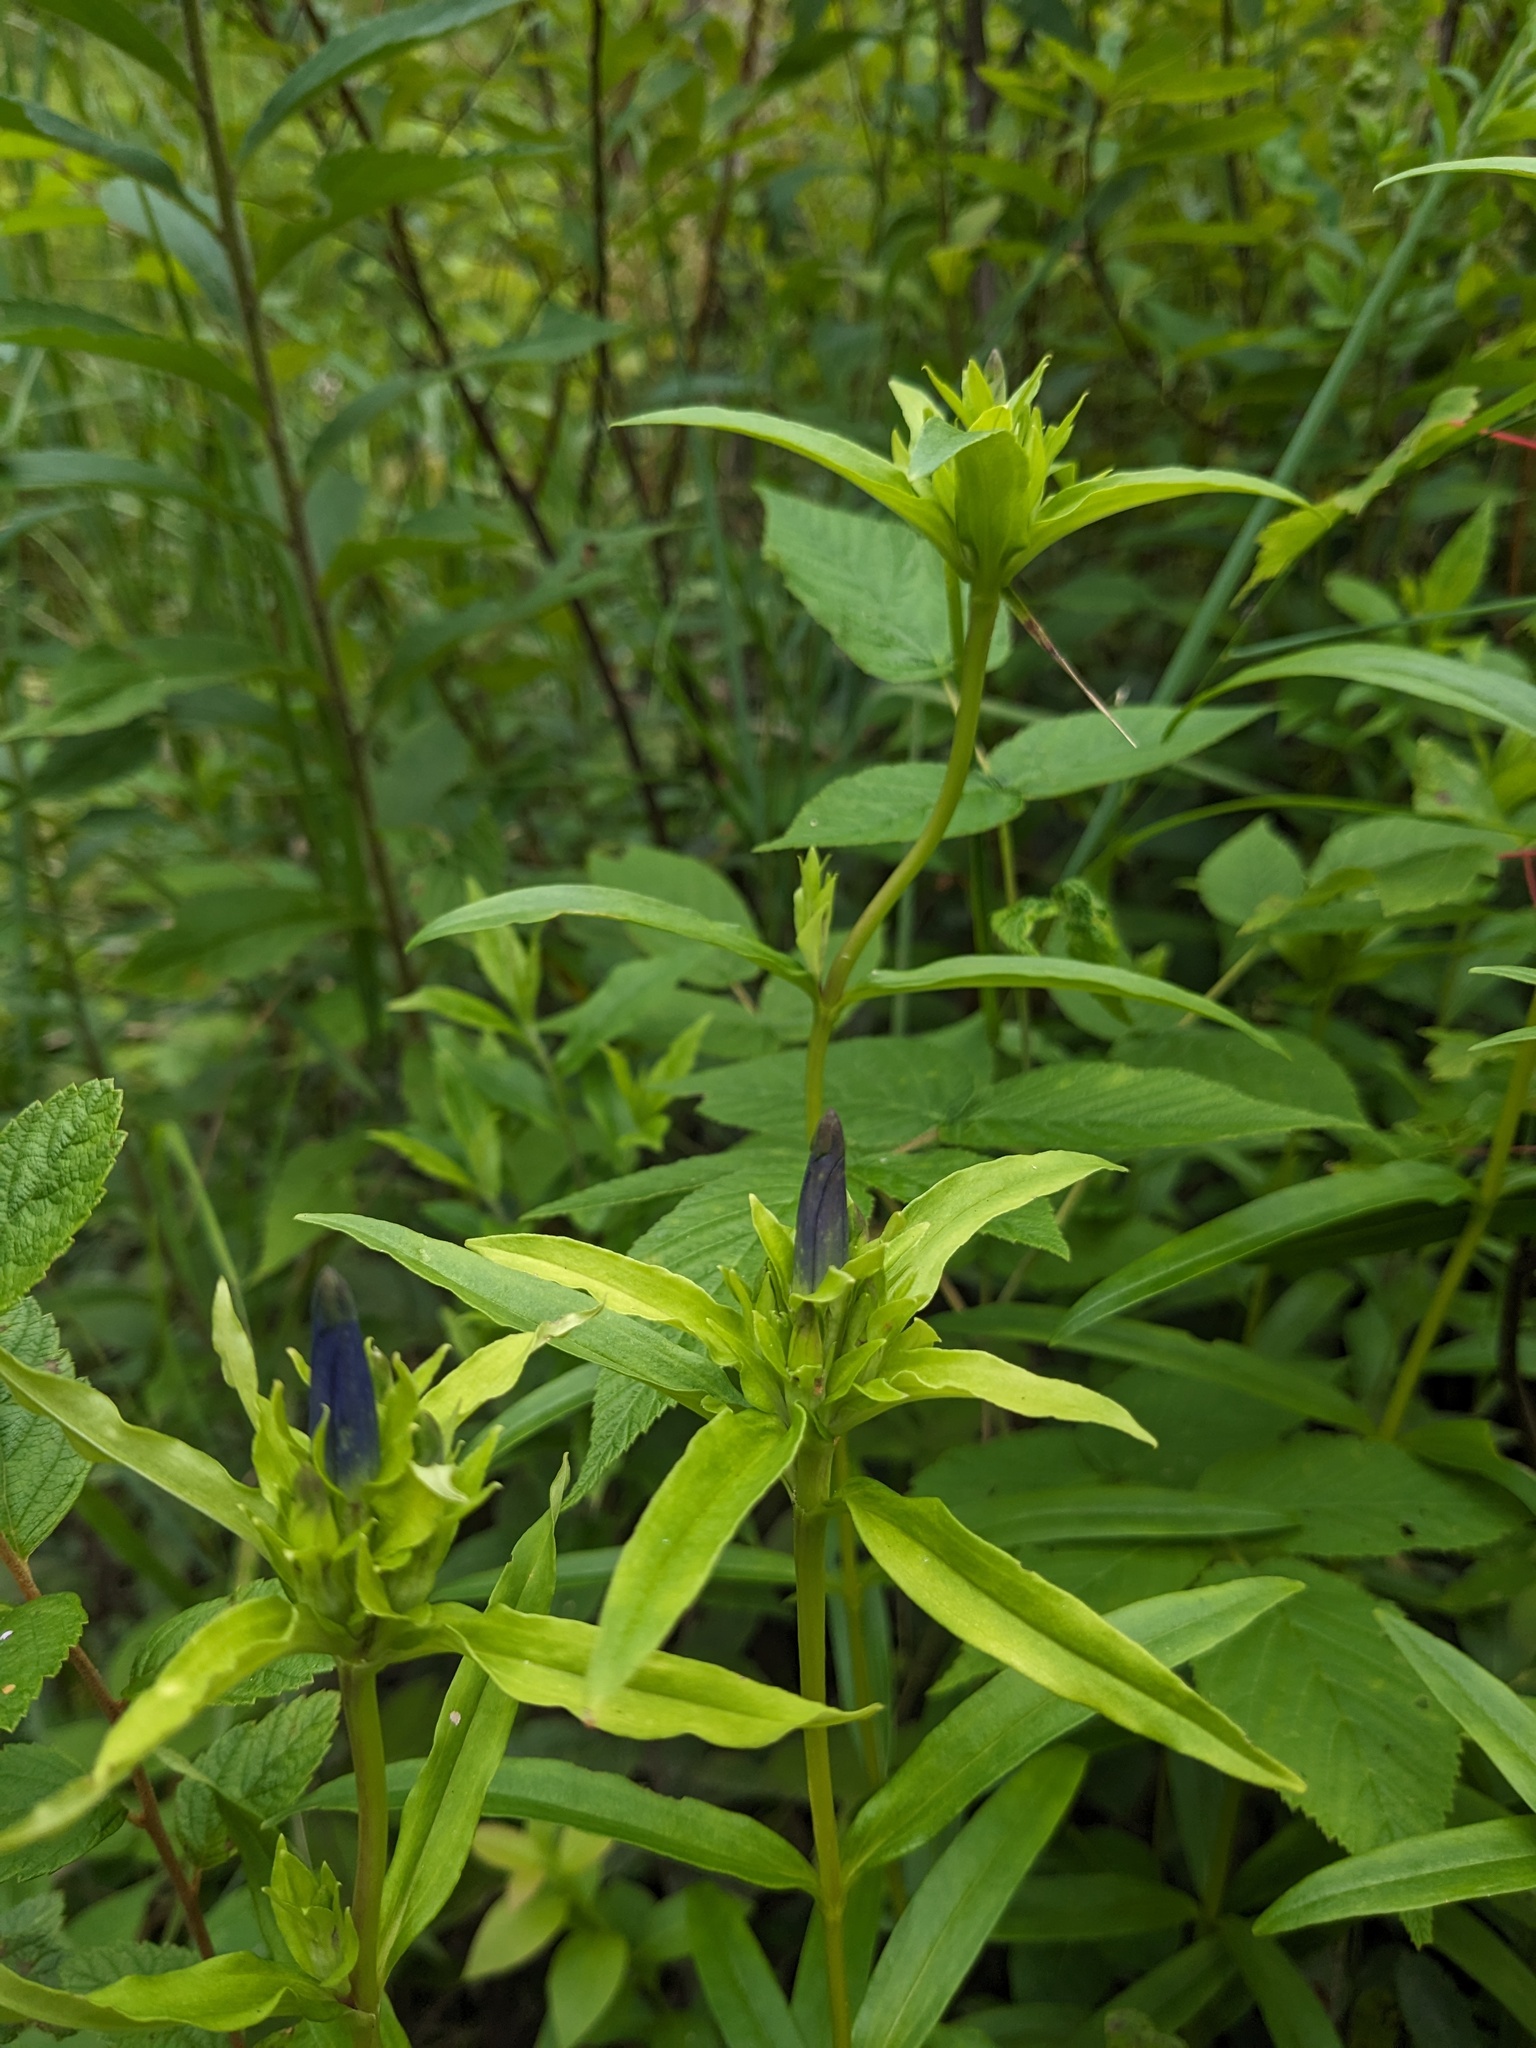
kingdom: Plantae
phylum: Tracheophyta
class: Magnoliopsida
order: Gentianales
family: Gentianaceae
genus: Gentiana
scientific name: Gentiana linearis
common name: Bastard gentian
